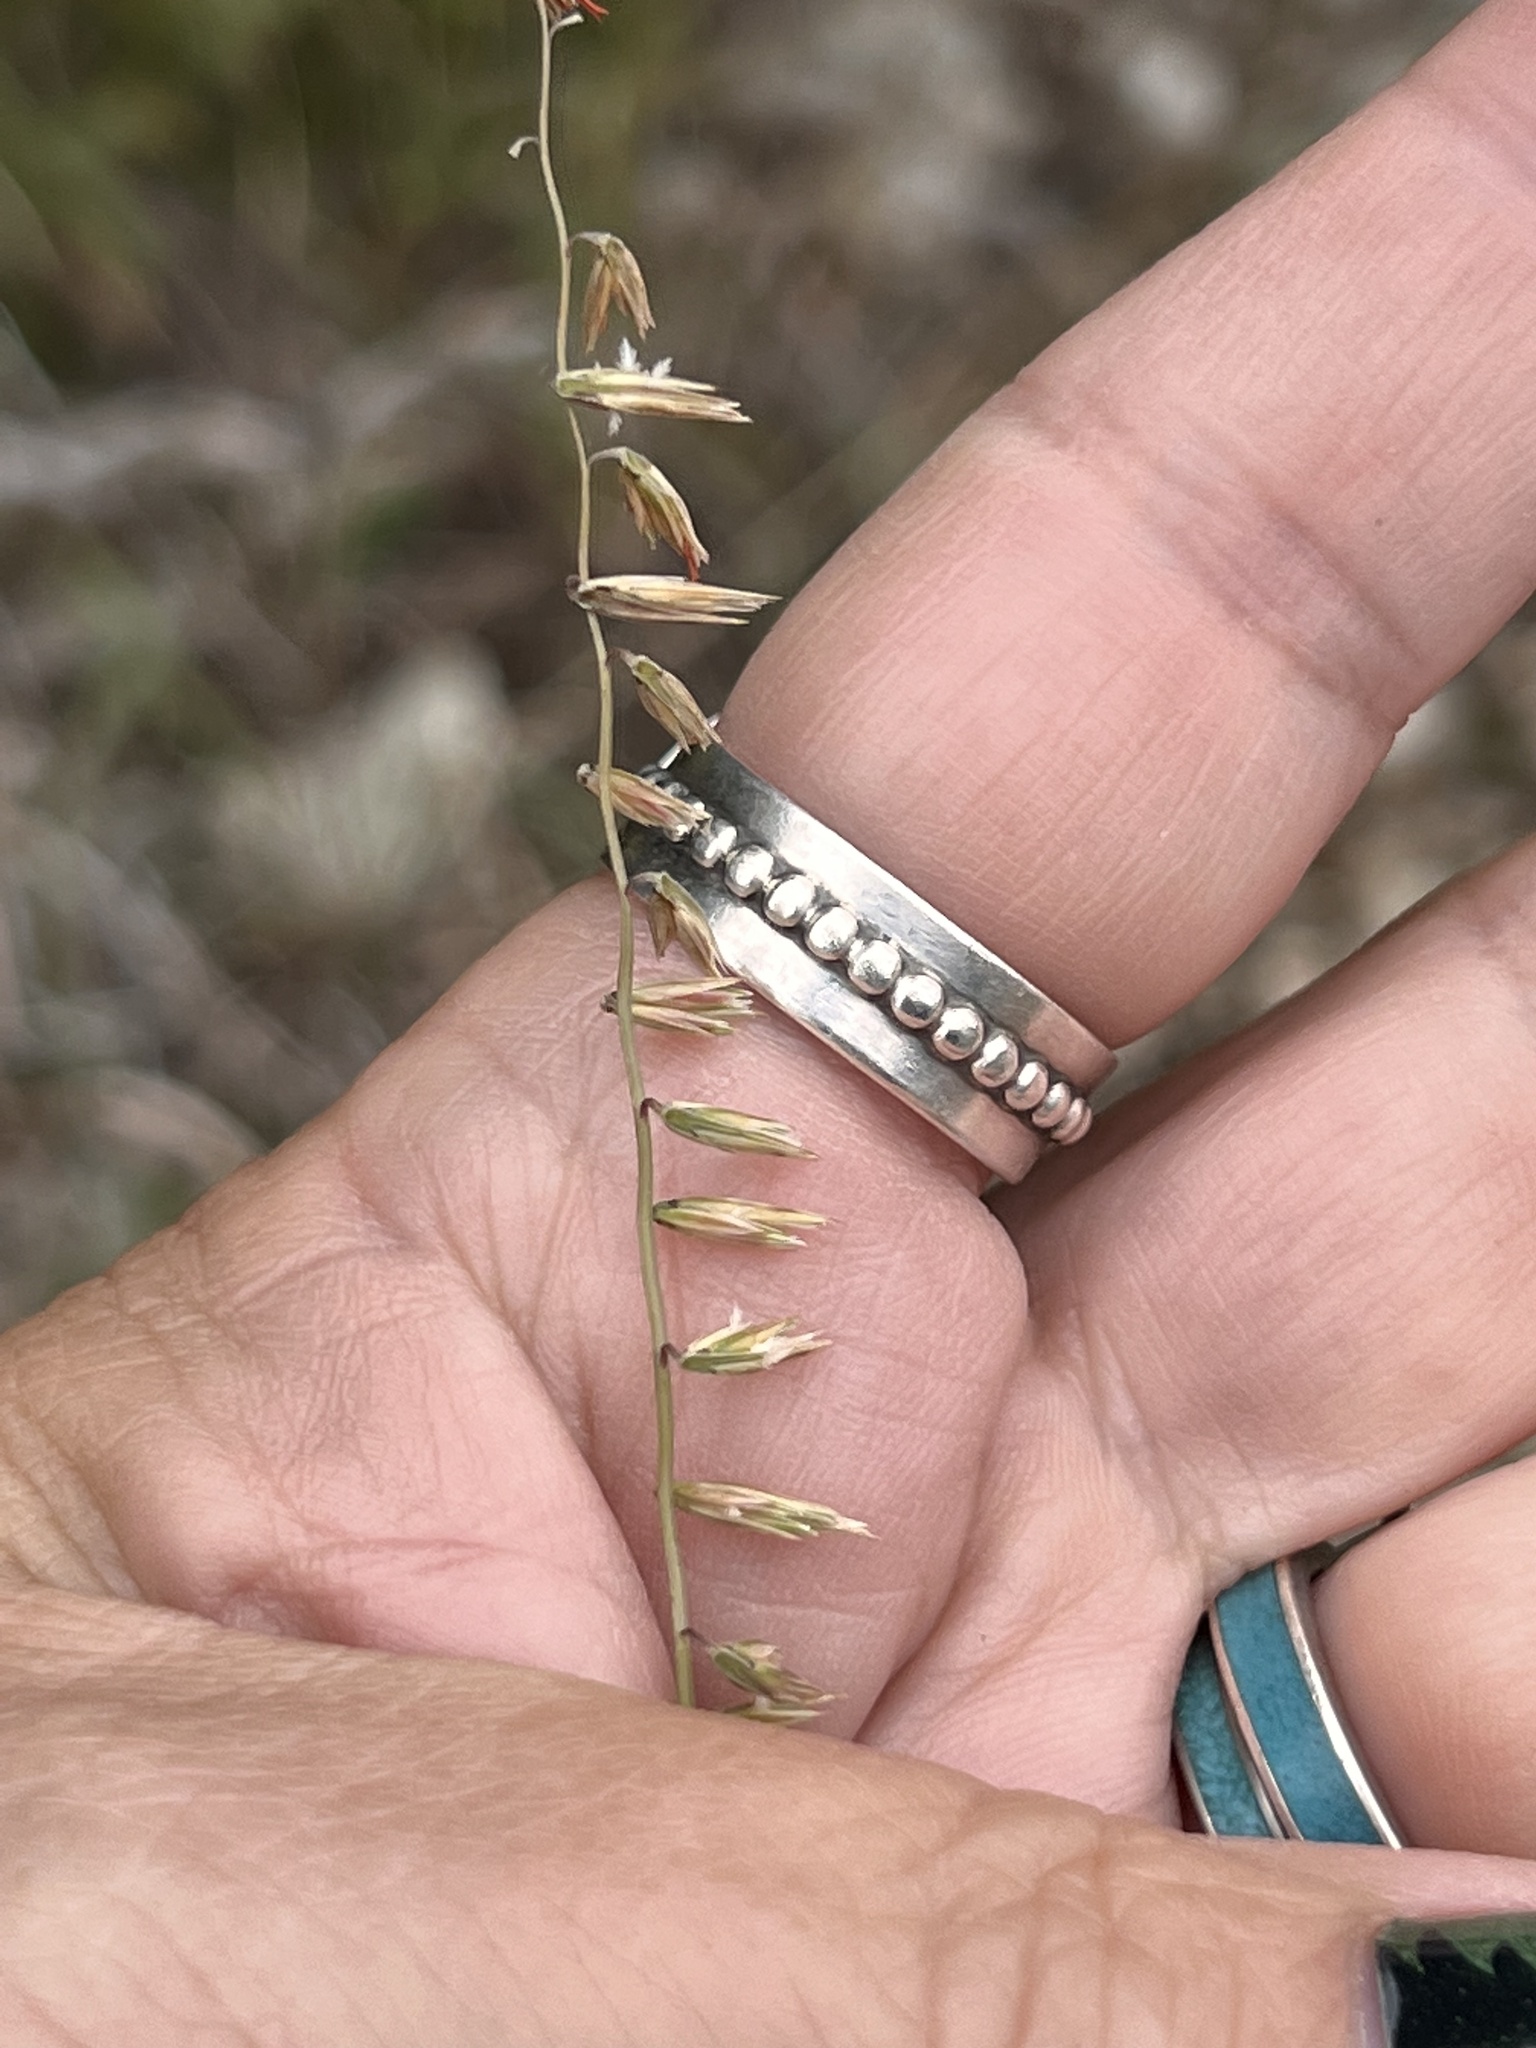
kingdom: Plantae
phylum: Tracheophyta
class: Liliopsida
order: Poales
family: Poaceae
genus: Bouteloua
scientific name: Bouteloua curtipendula
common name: Side-oats grama
